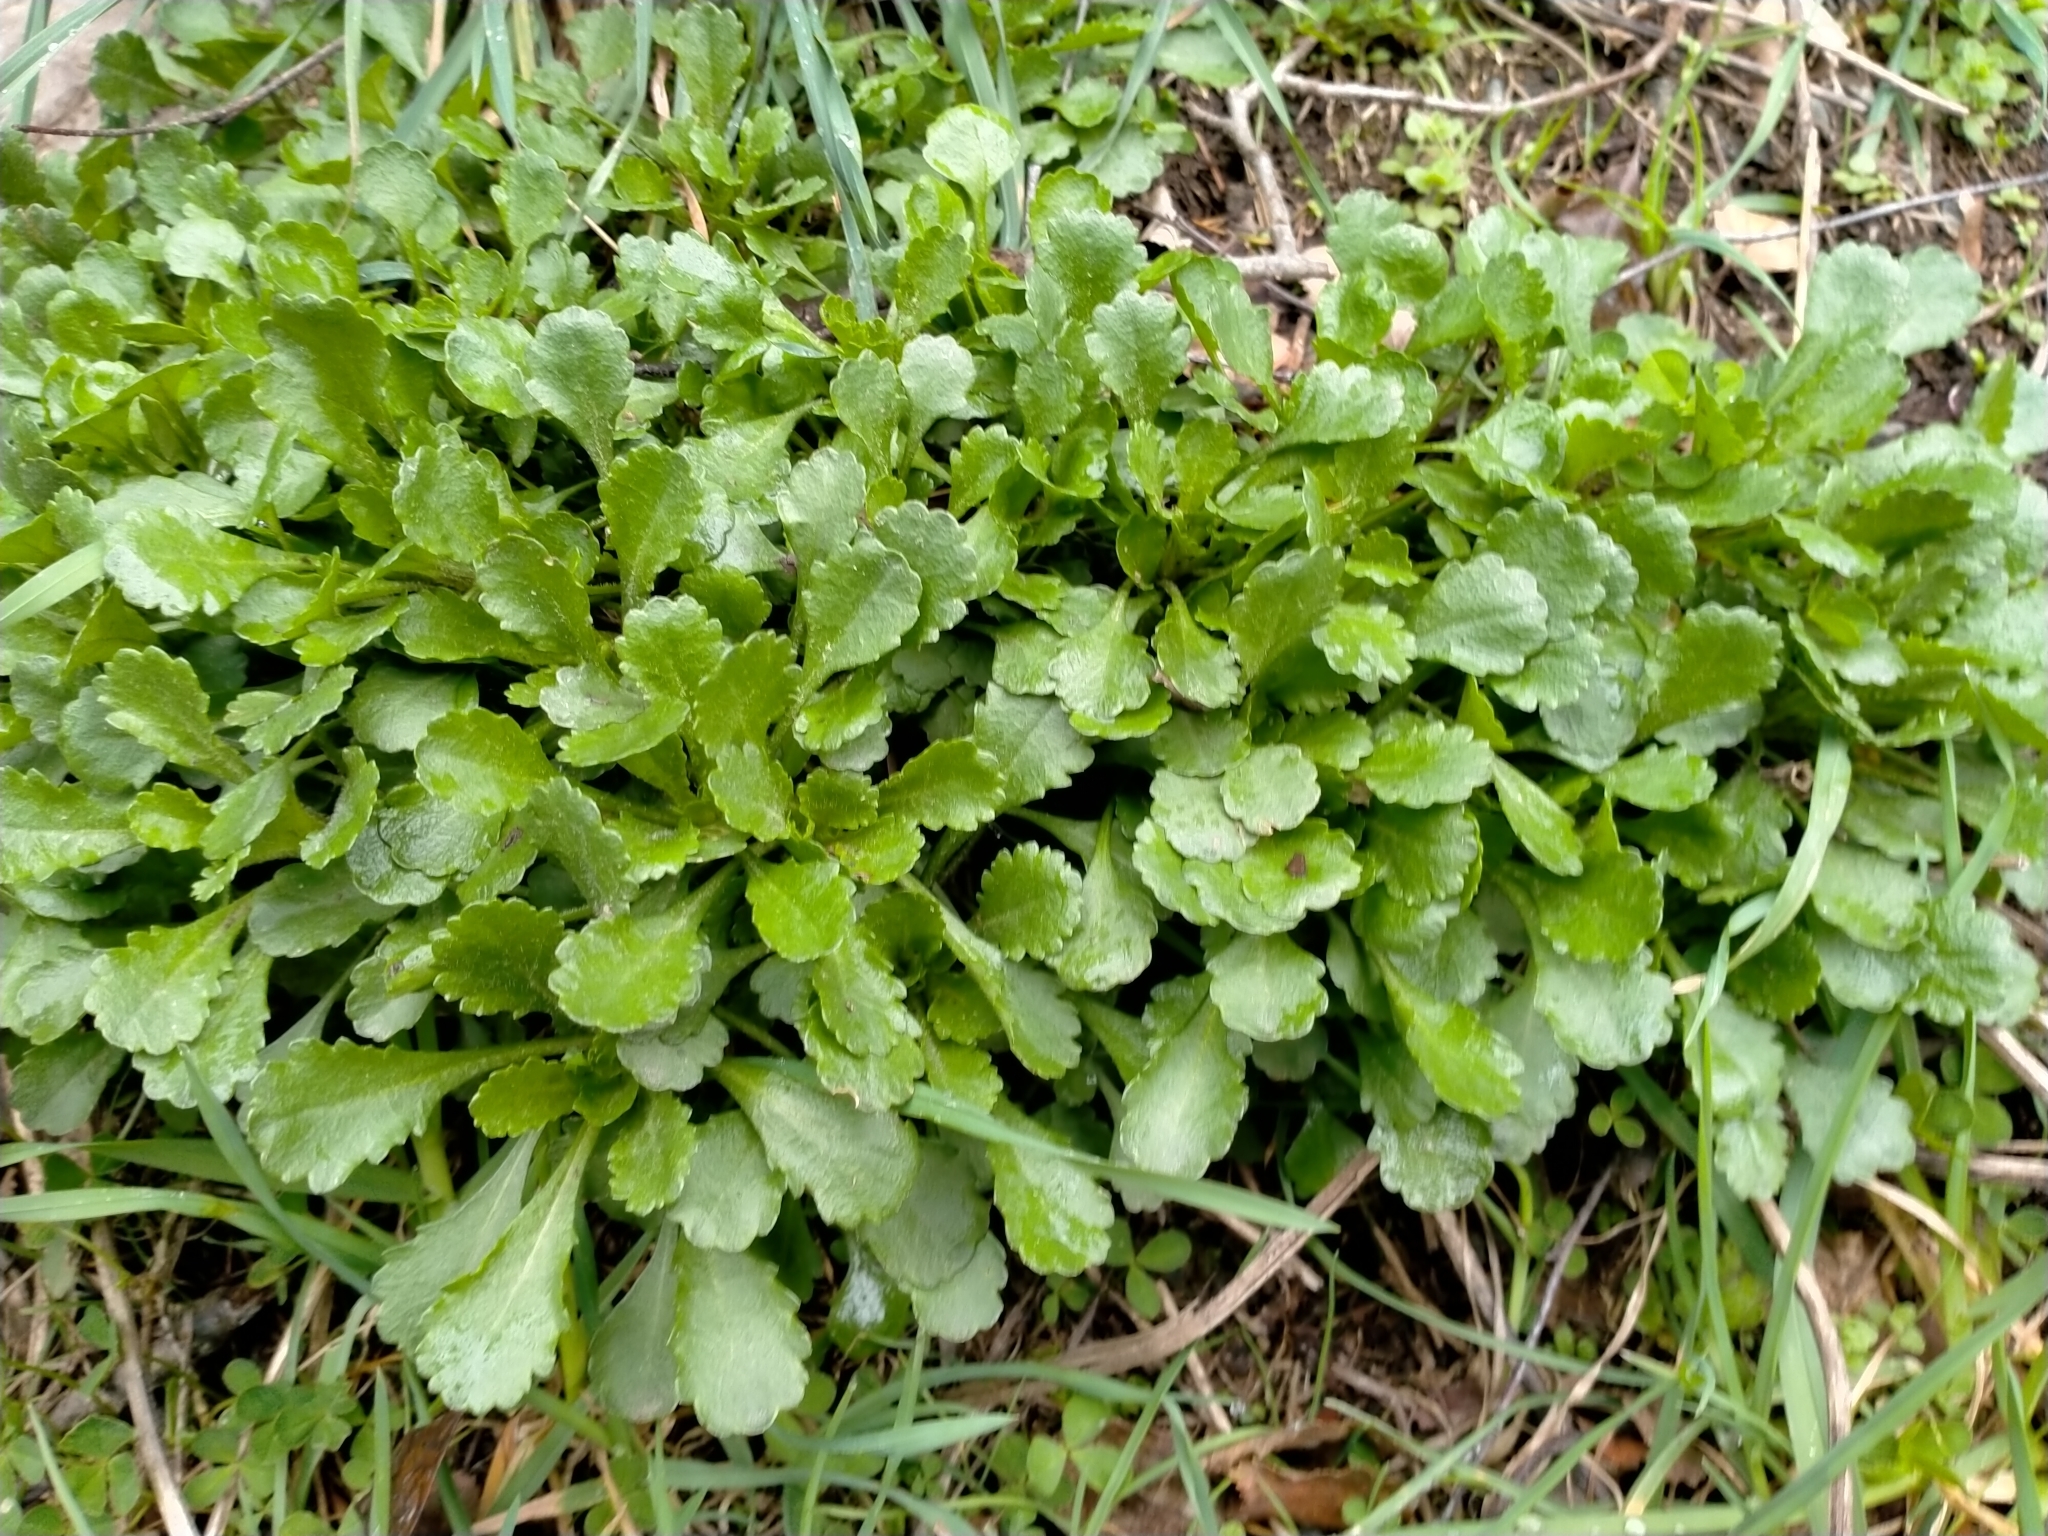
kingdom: Plantae
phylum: Tracheophyta
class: Magnoliopsida
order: Asterales
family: Asteraceae
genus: Leucanthemum
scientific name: Leucanthemum vulgare
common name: Oxeye daisy
